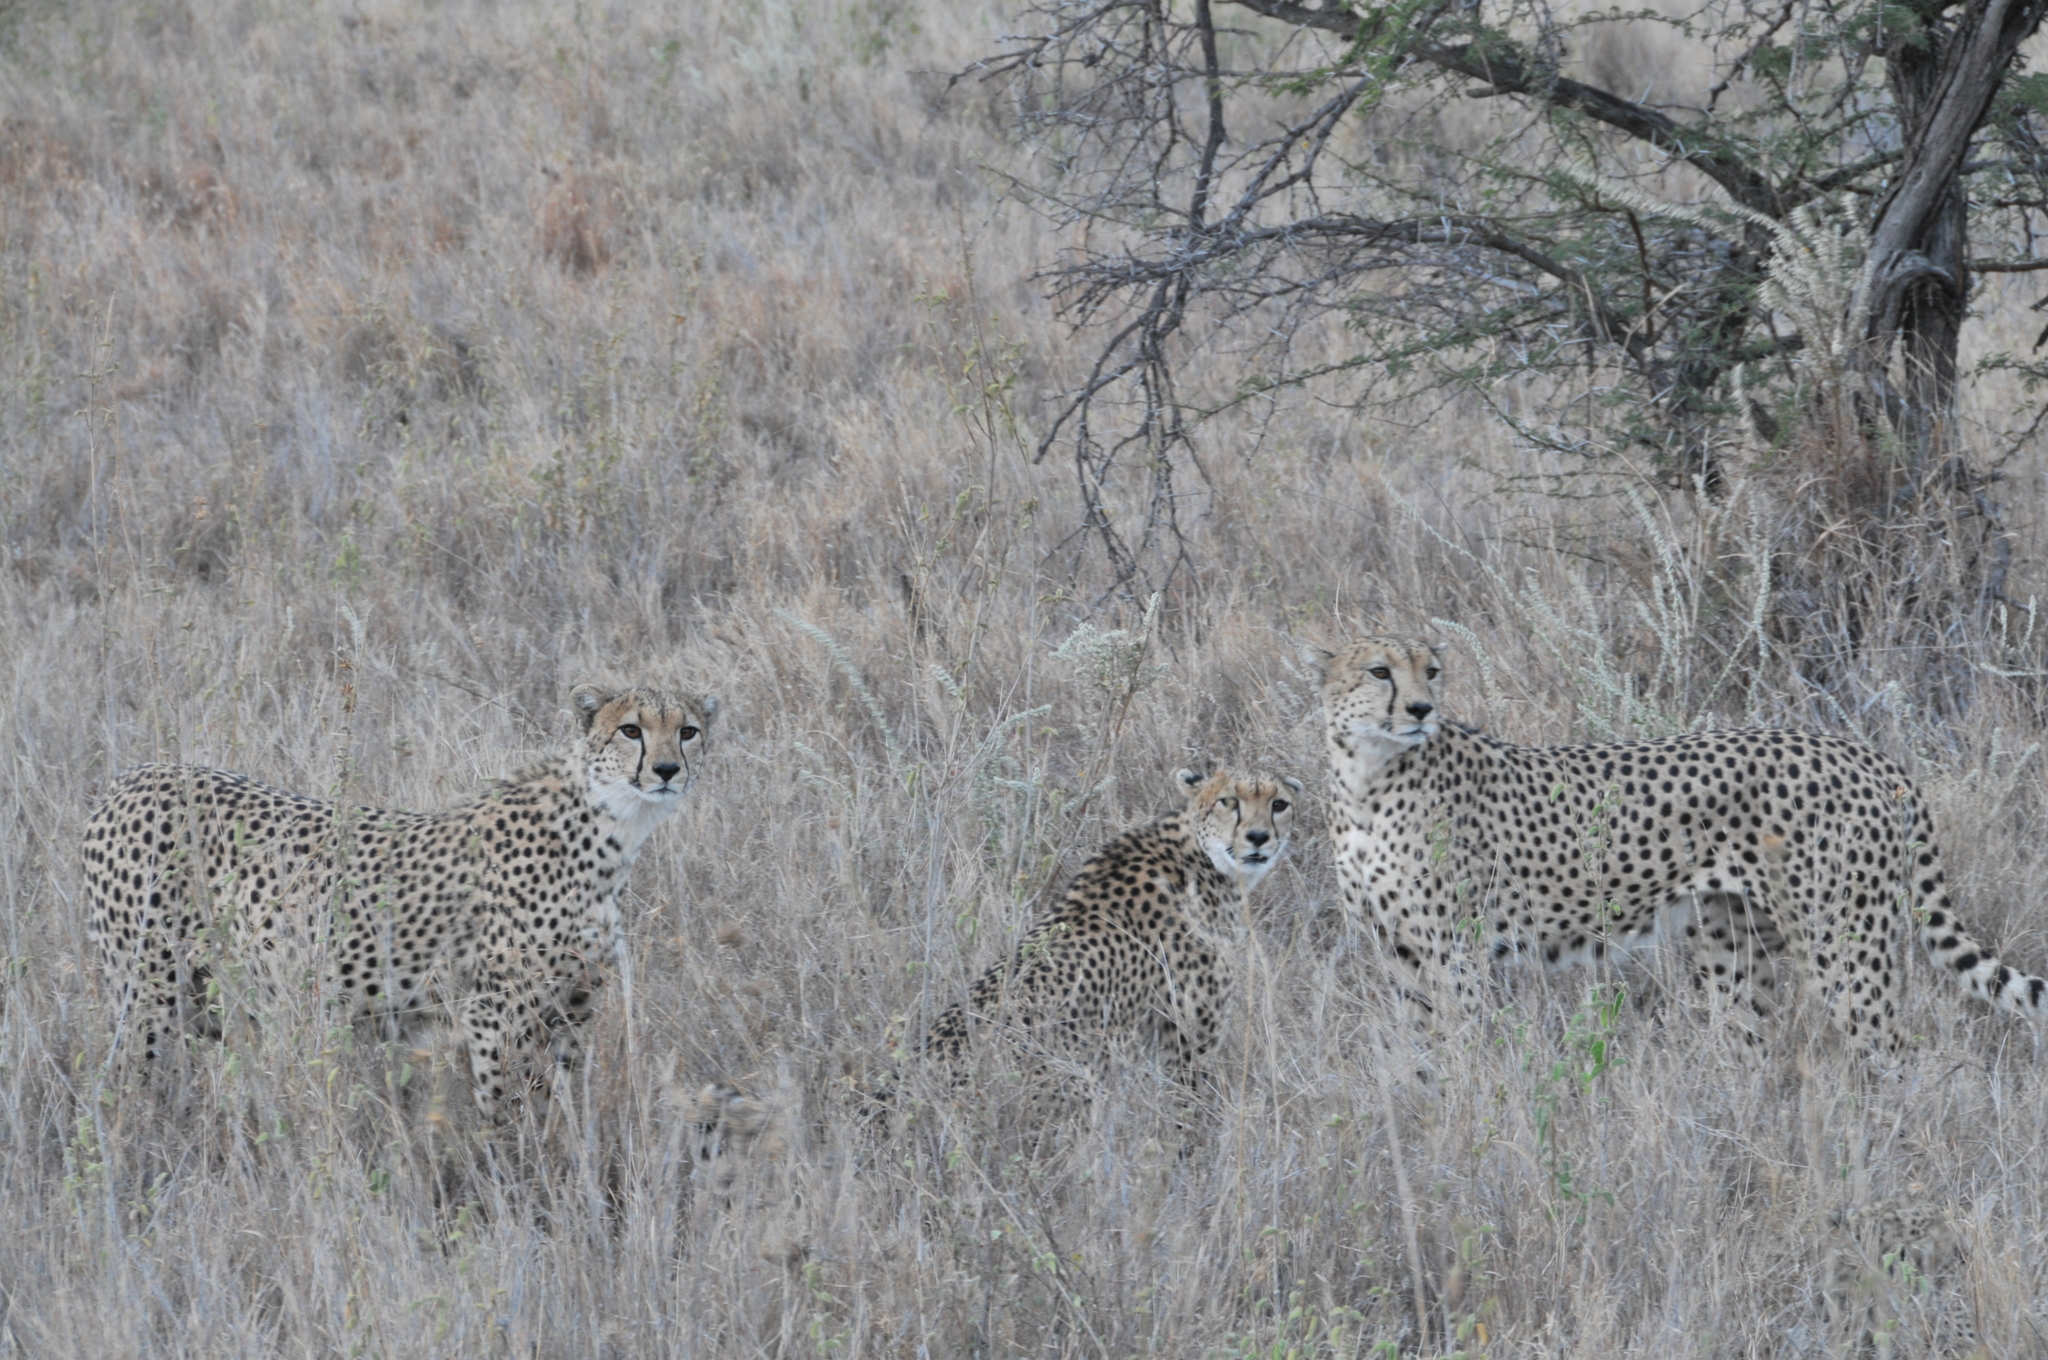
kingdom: Animalia
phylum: Chordata
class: Mammalia
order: Carnivora
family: Felidae
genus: Acinonyx
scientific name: Acinonyx jubatus
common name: Cheetah
